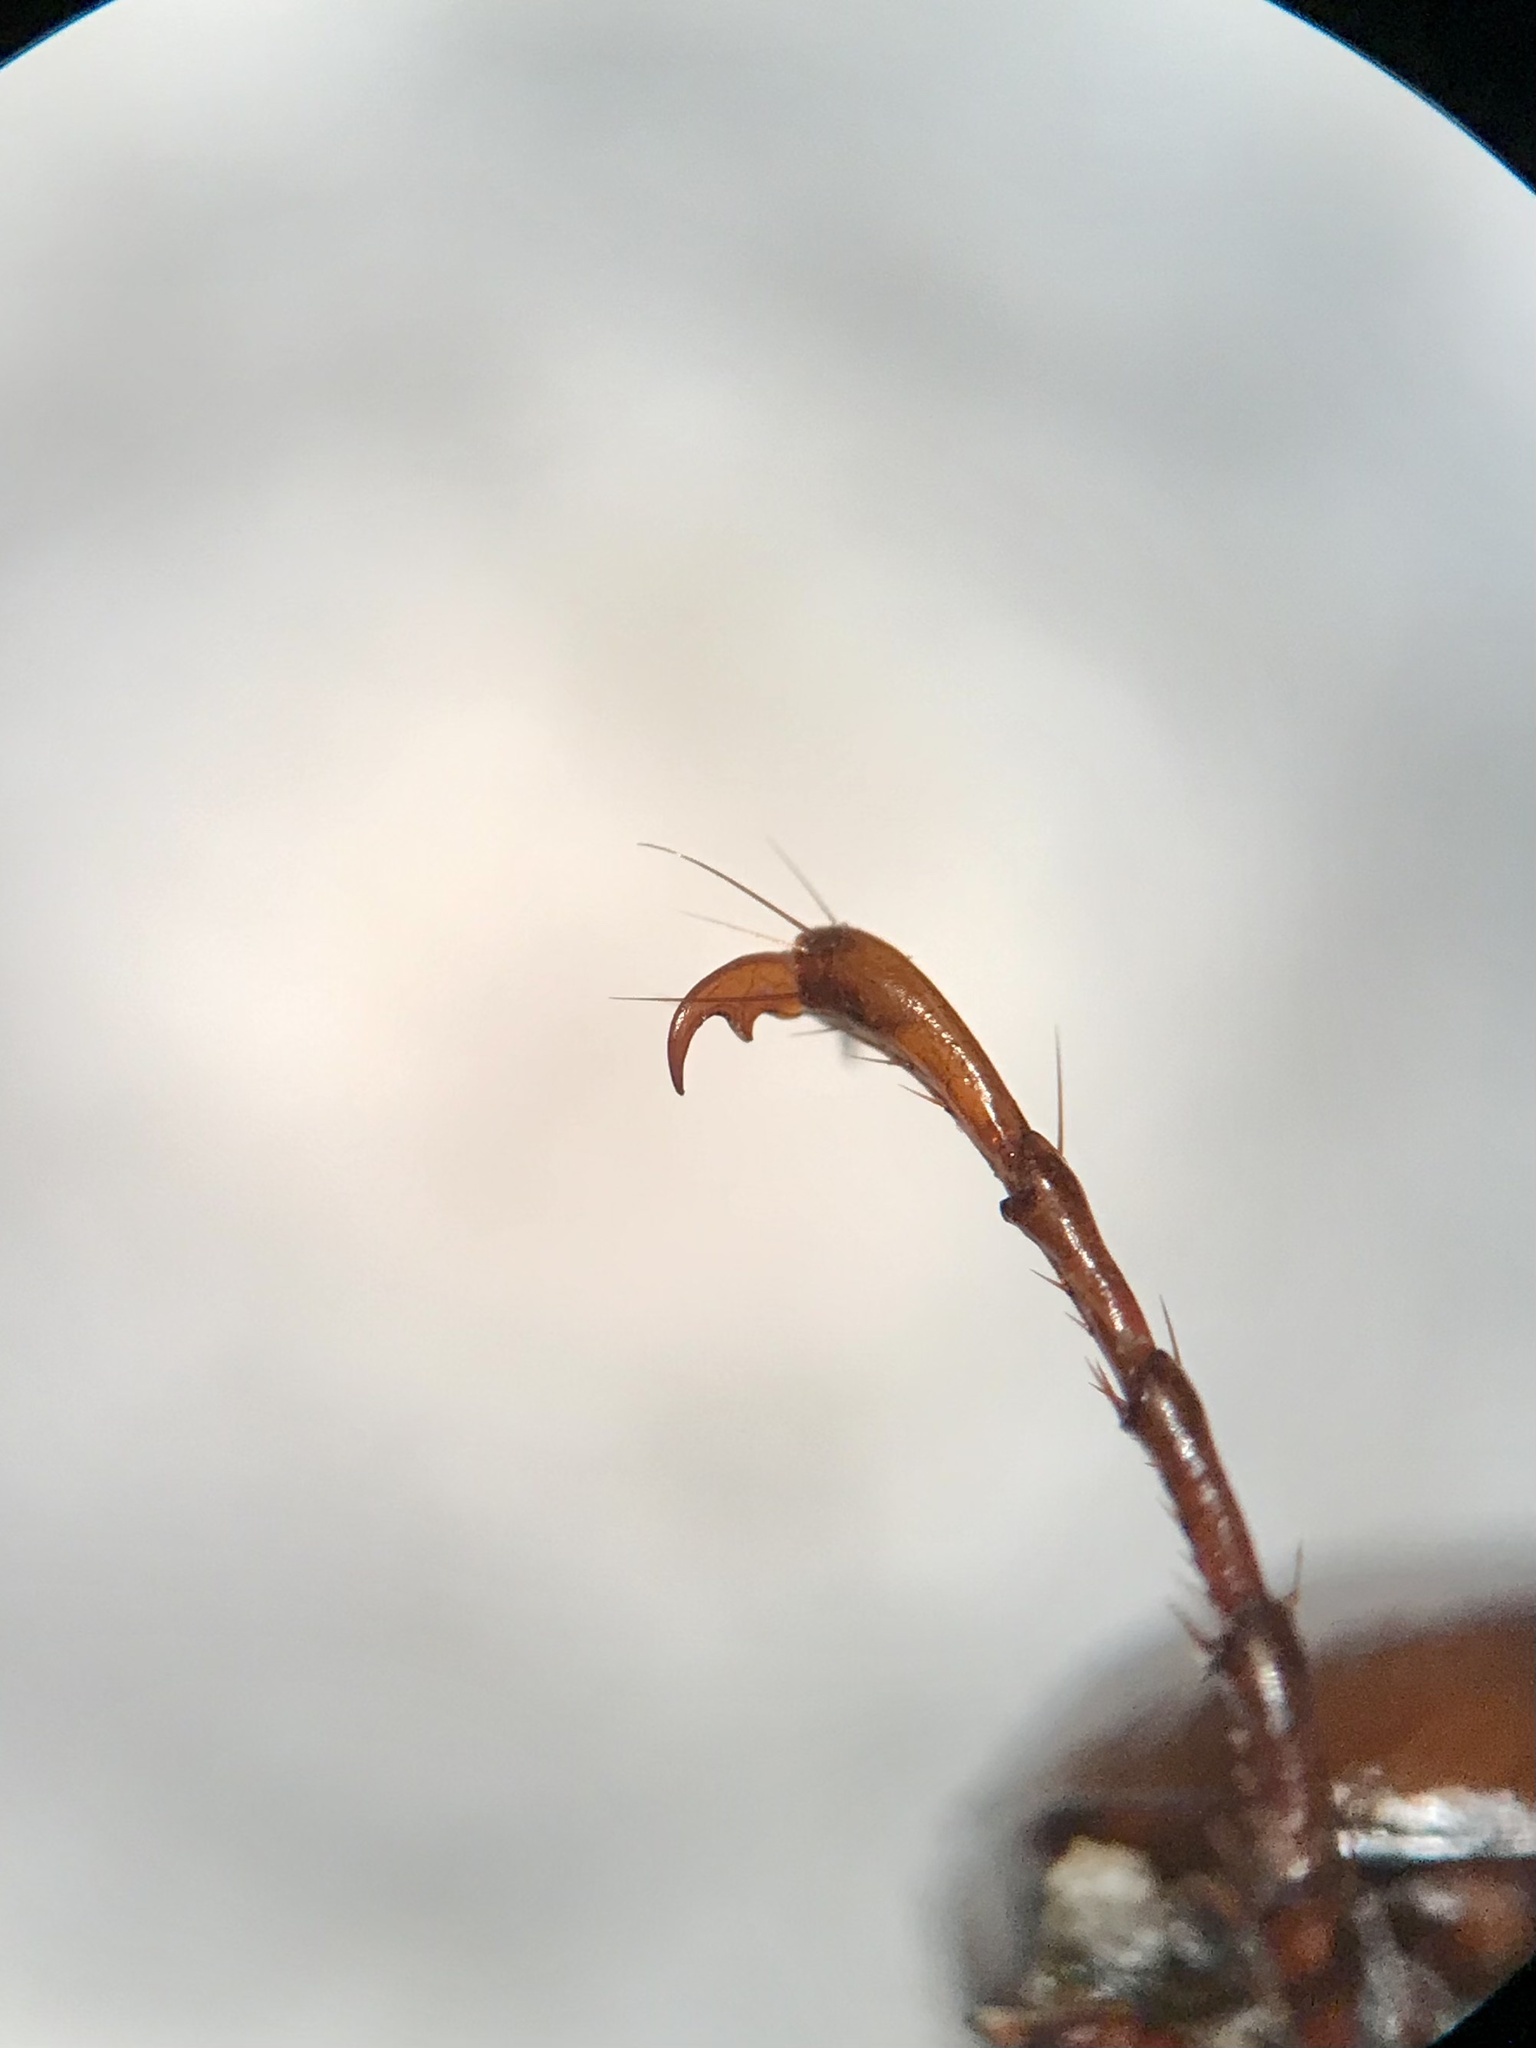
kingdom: Animalia
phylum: Arthropoda
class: Insecta
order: Coleoptera
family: Scarabaeidae
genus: Phyllophaga
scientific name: Phyllophaga anxia
